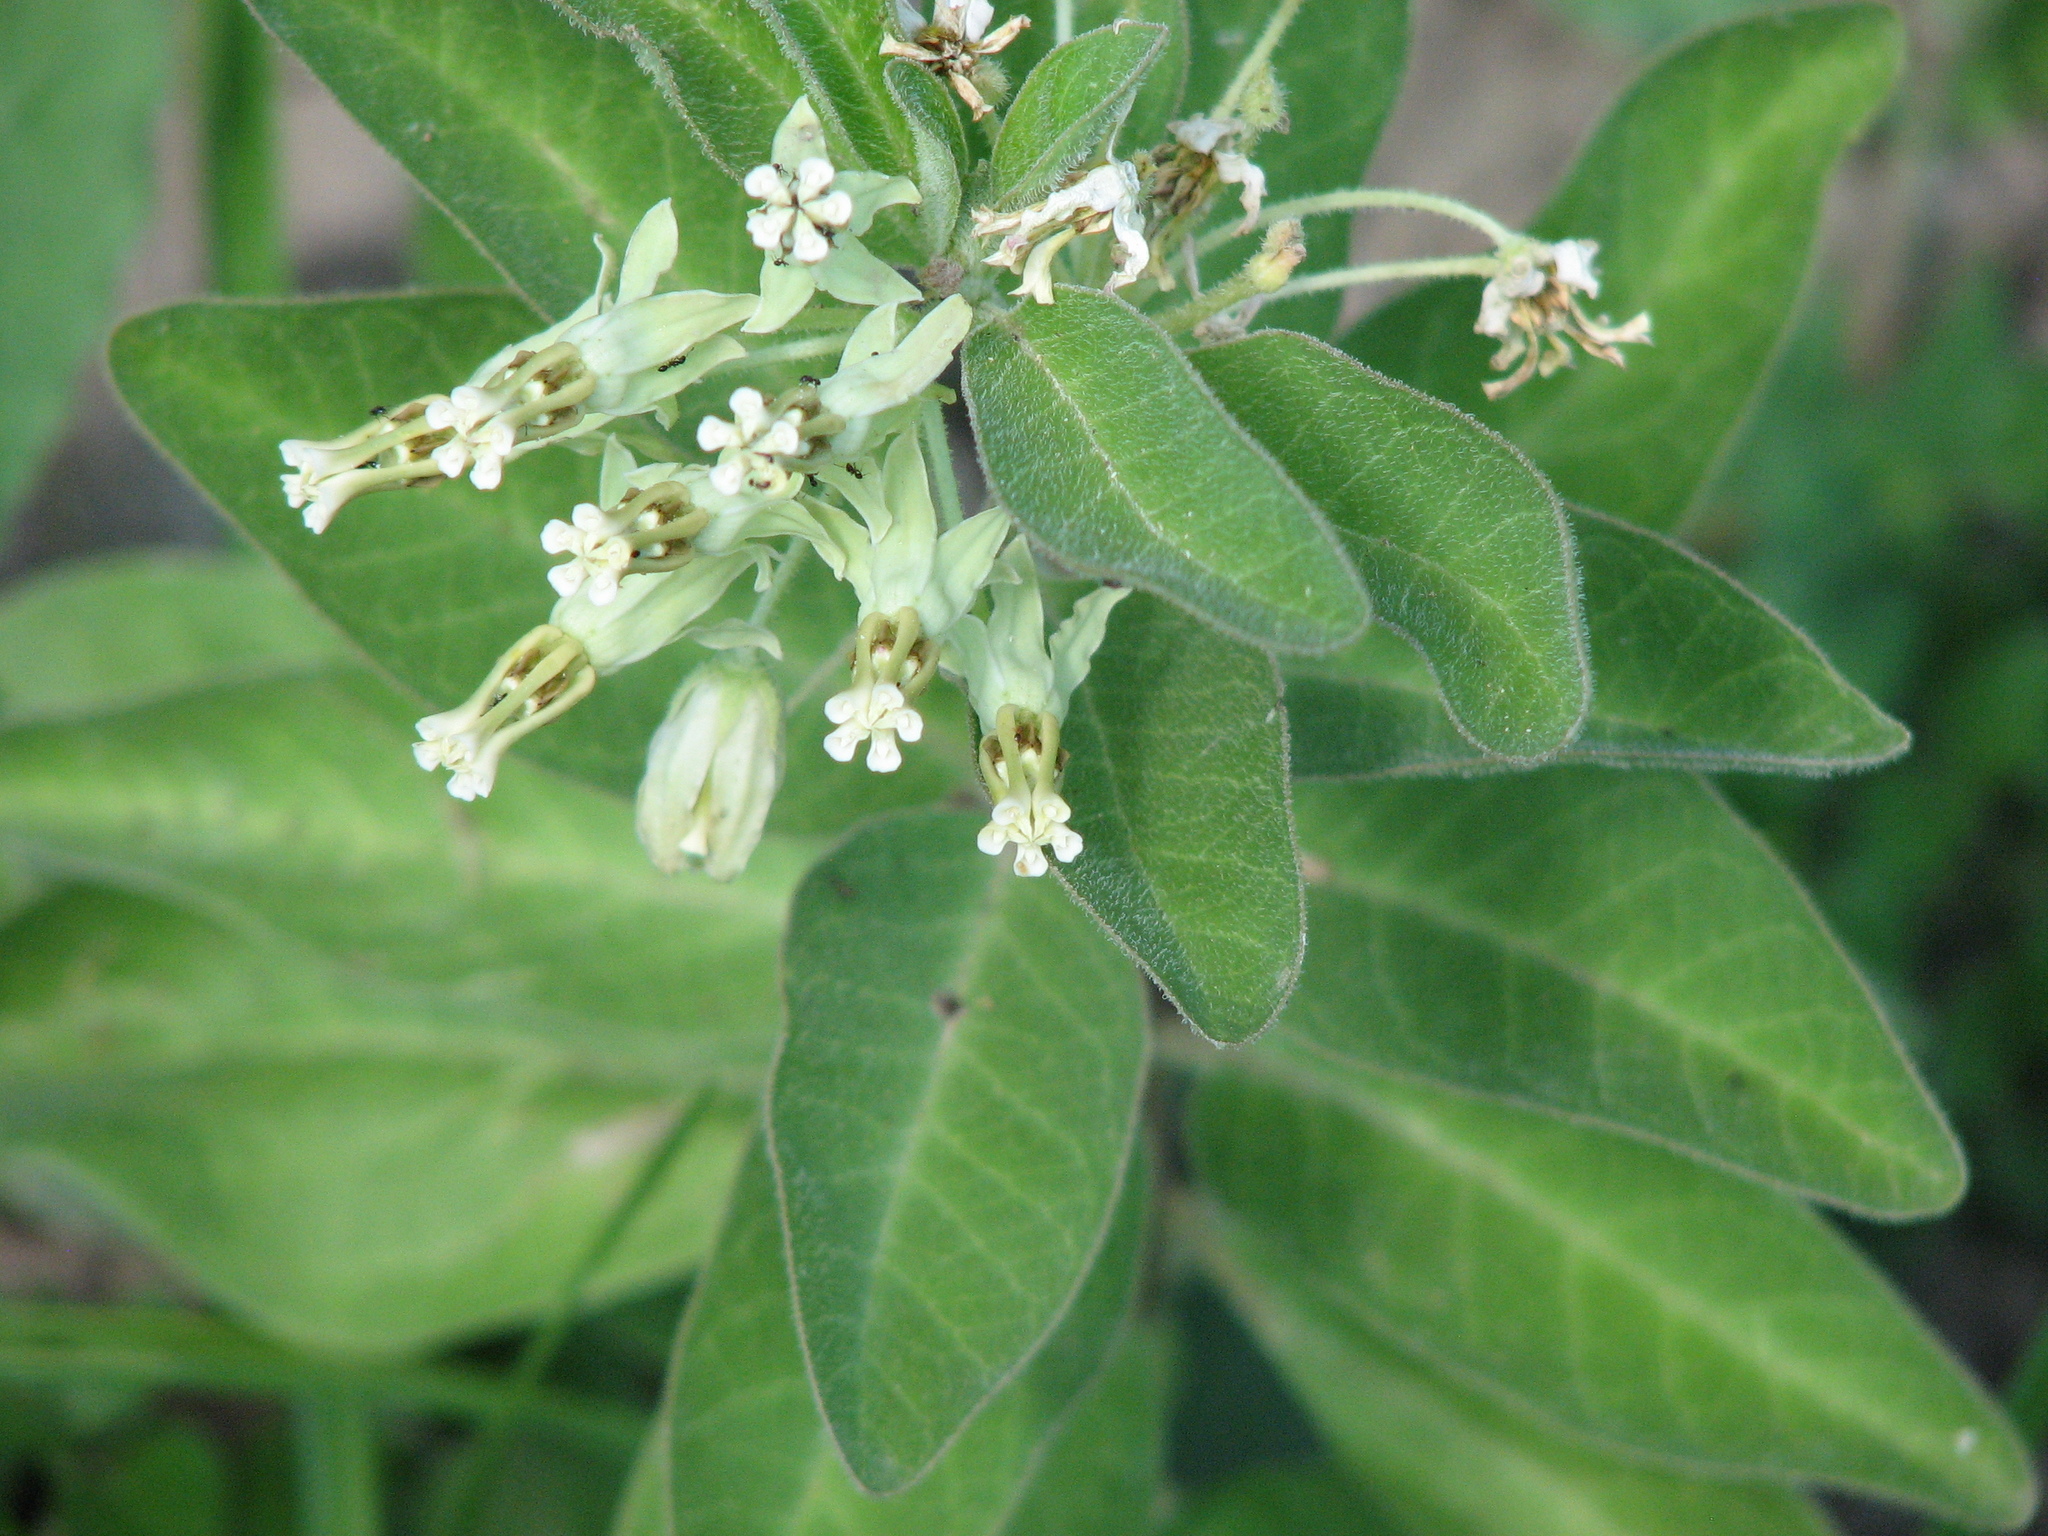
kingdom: Plantae
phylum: Tracheophyta
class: Magnoliopsida
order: Gentianales
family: Apocynaceae
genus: Asclepias
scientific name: Asclepias oenotheroides
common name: Zizotes milkweed
